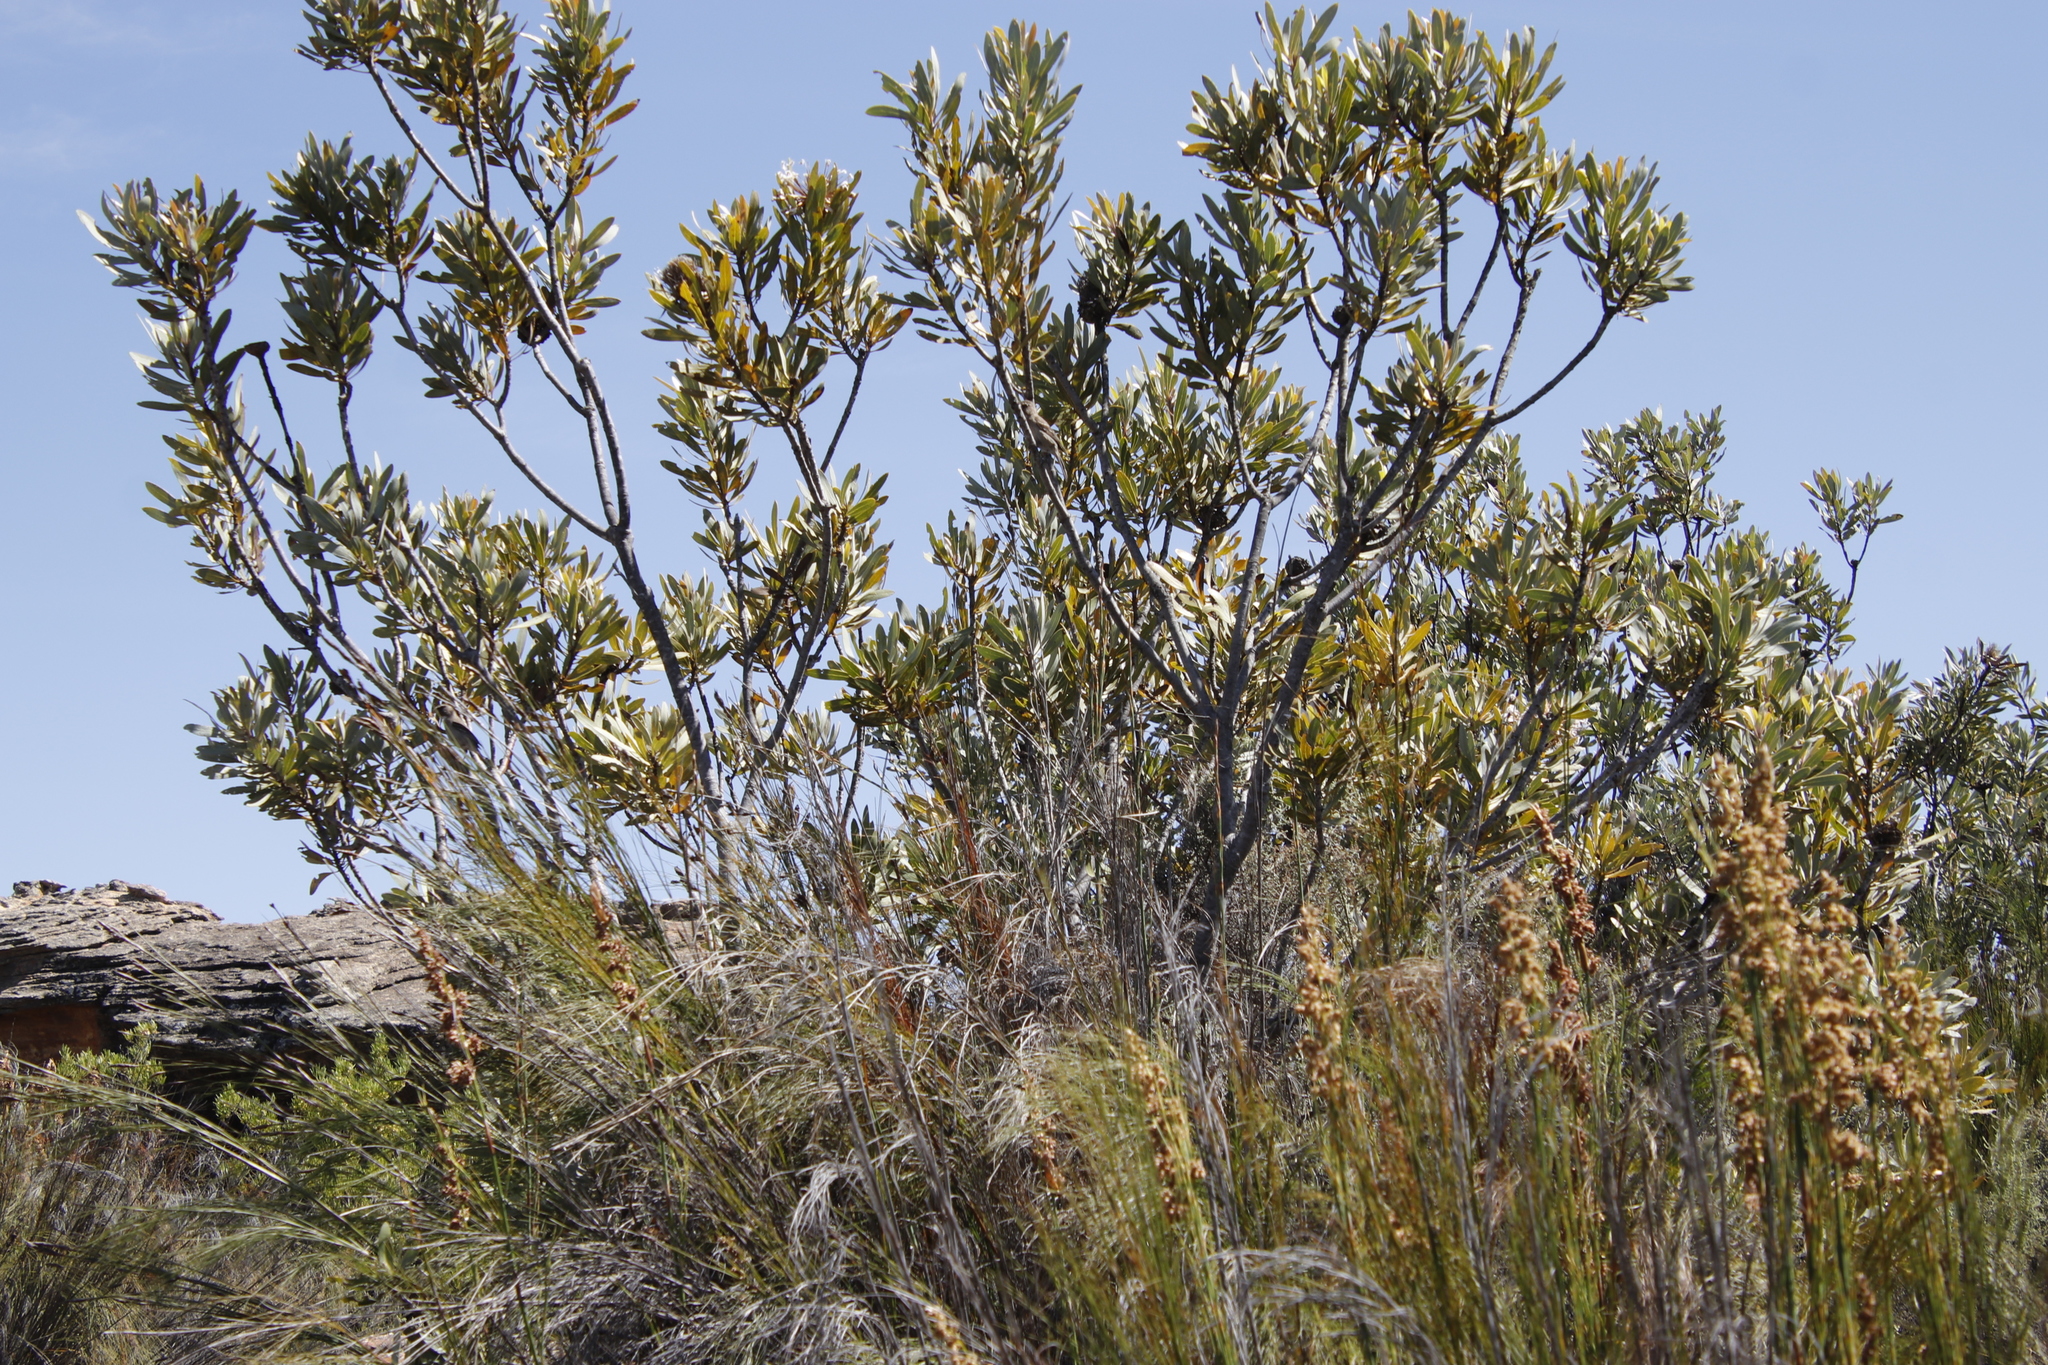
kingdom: Plantae
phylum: Tracheophyta
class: Magnoliopsida
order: Proteales
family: Proteaceae
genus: Protea
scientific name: Protea laurifolia
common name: Grey-leaf sugarbsh
